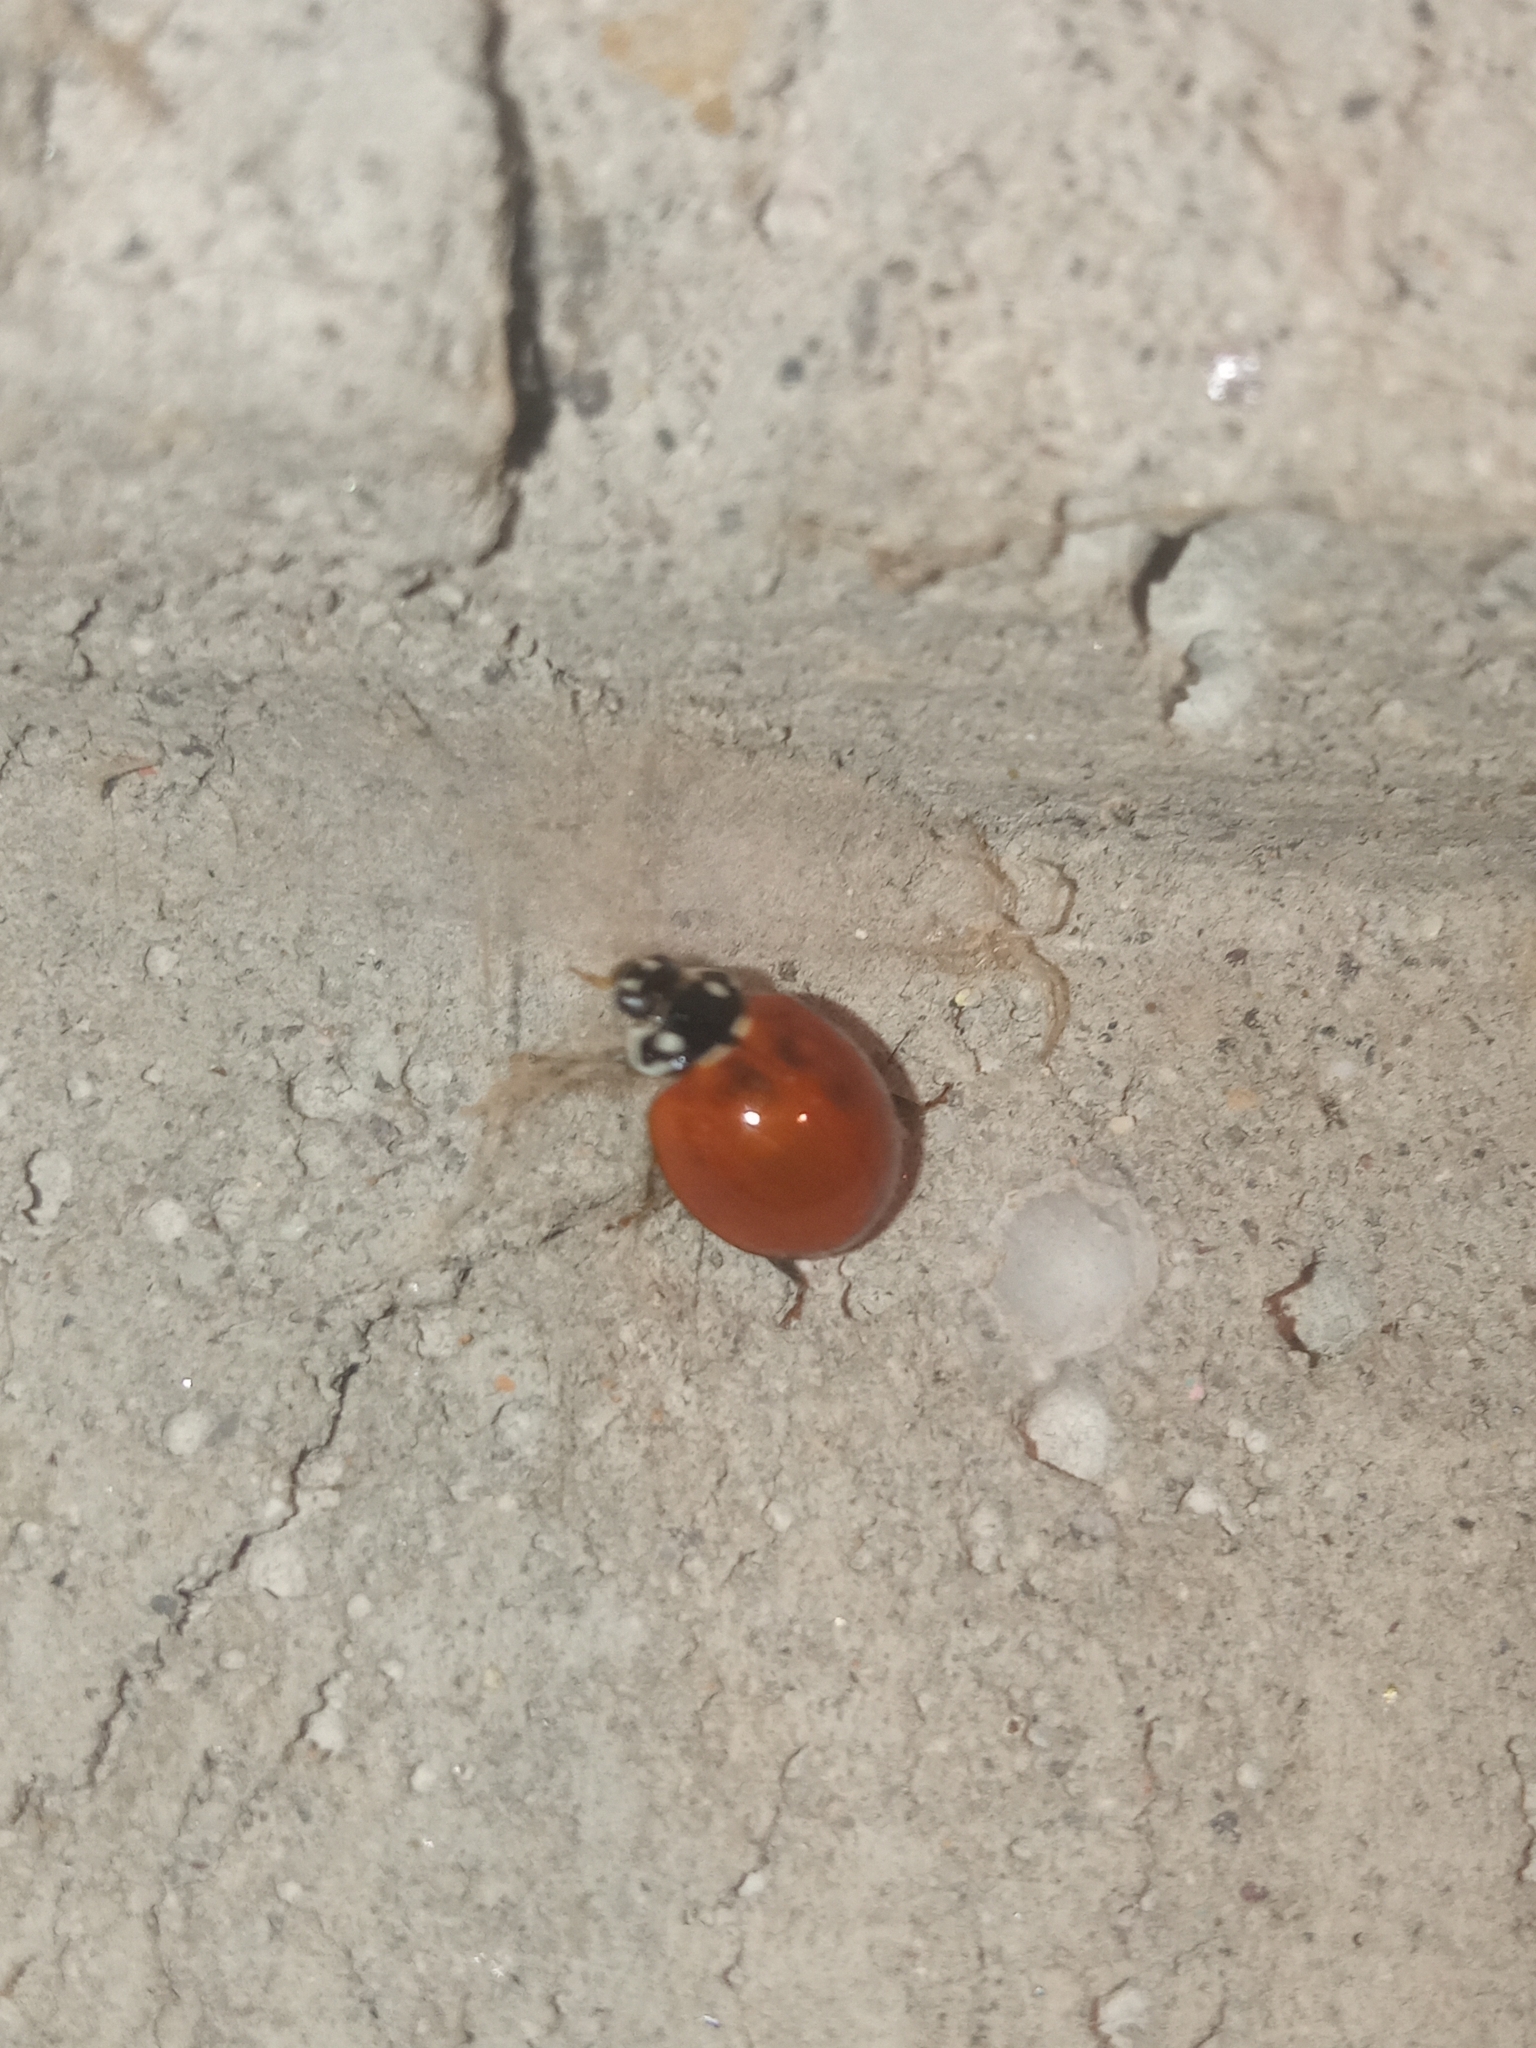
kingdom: Animalia
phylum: Arthropoda
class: Insecta
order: Coleoptera
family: Coccinellidae
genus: Cycloneda
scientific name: Cycloneda sanguinea
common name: Ladybird beetle
